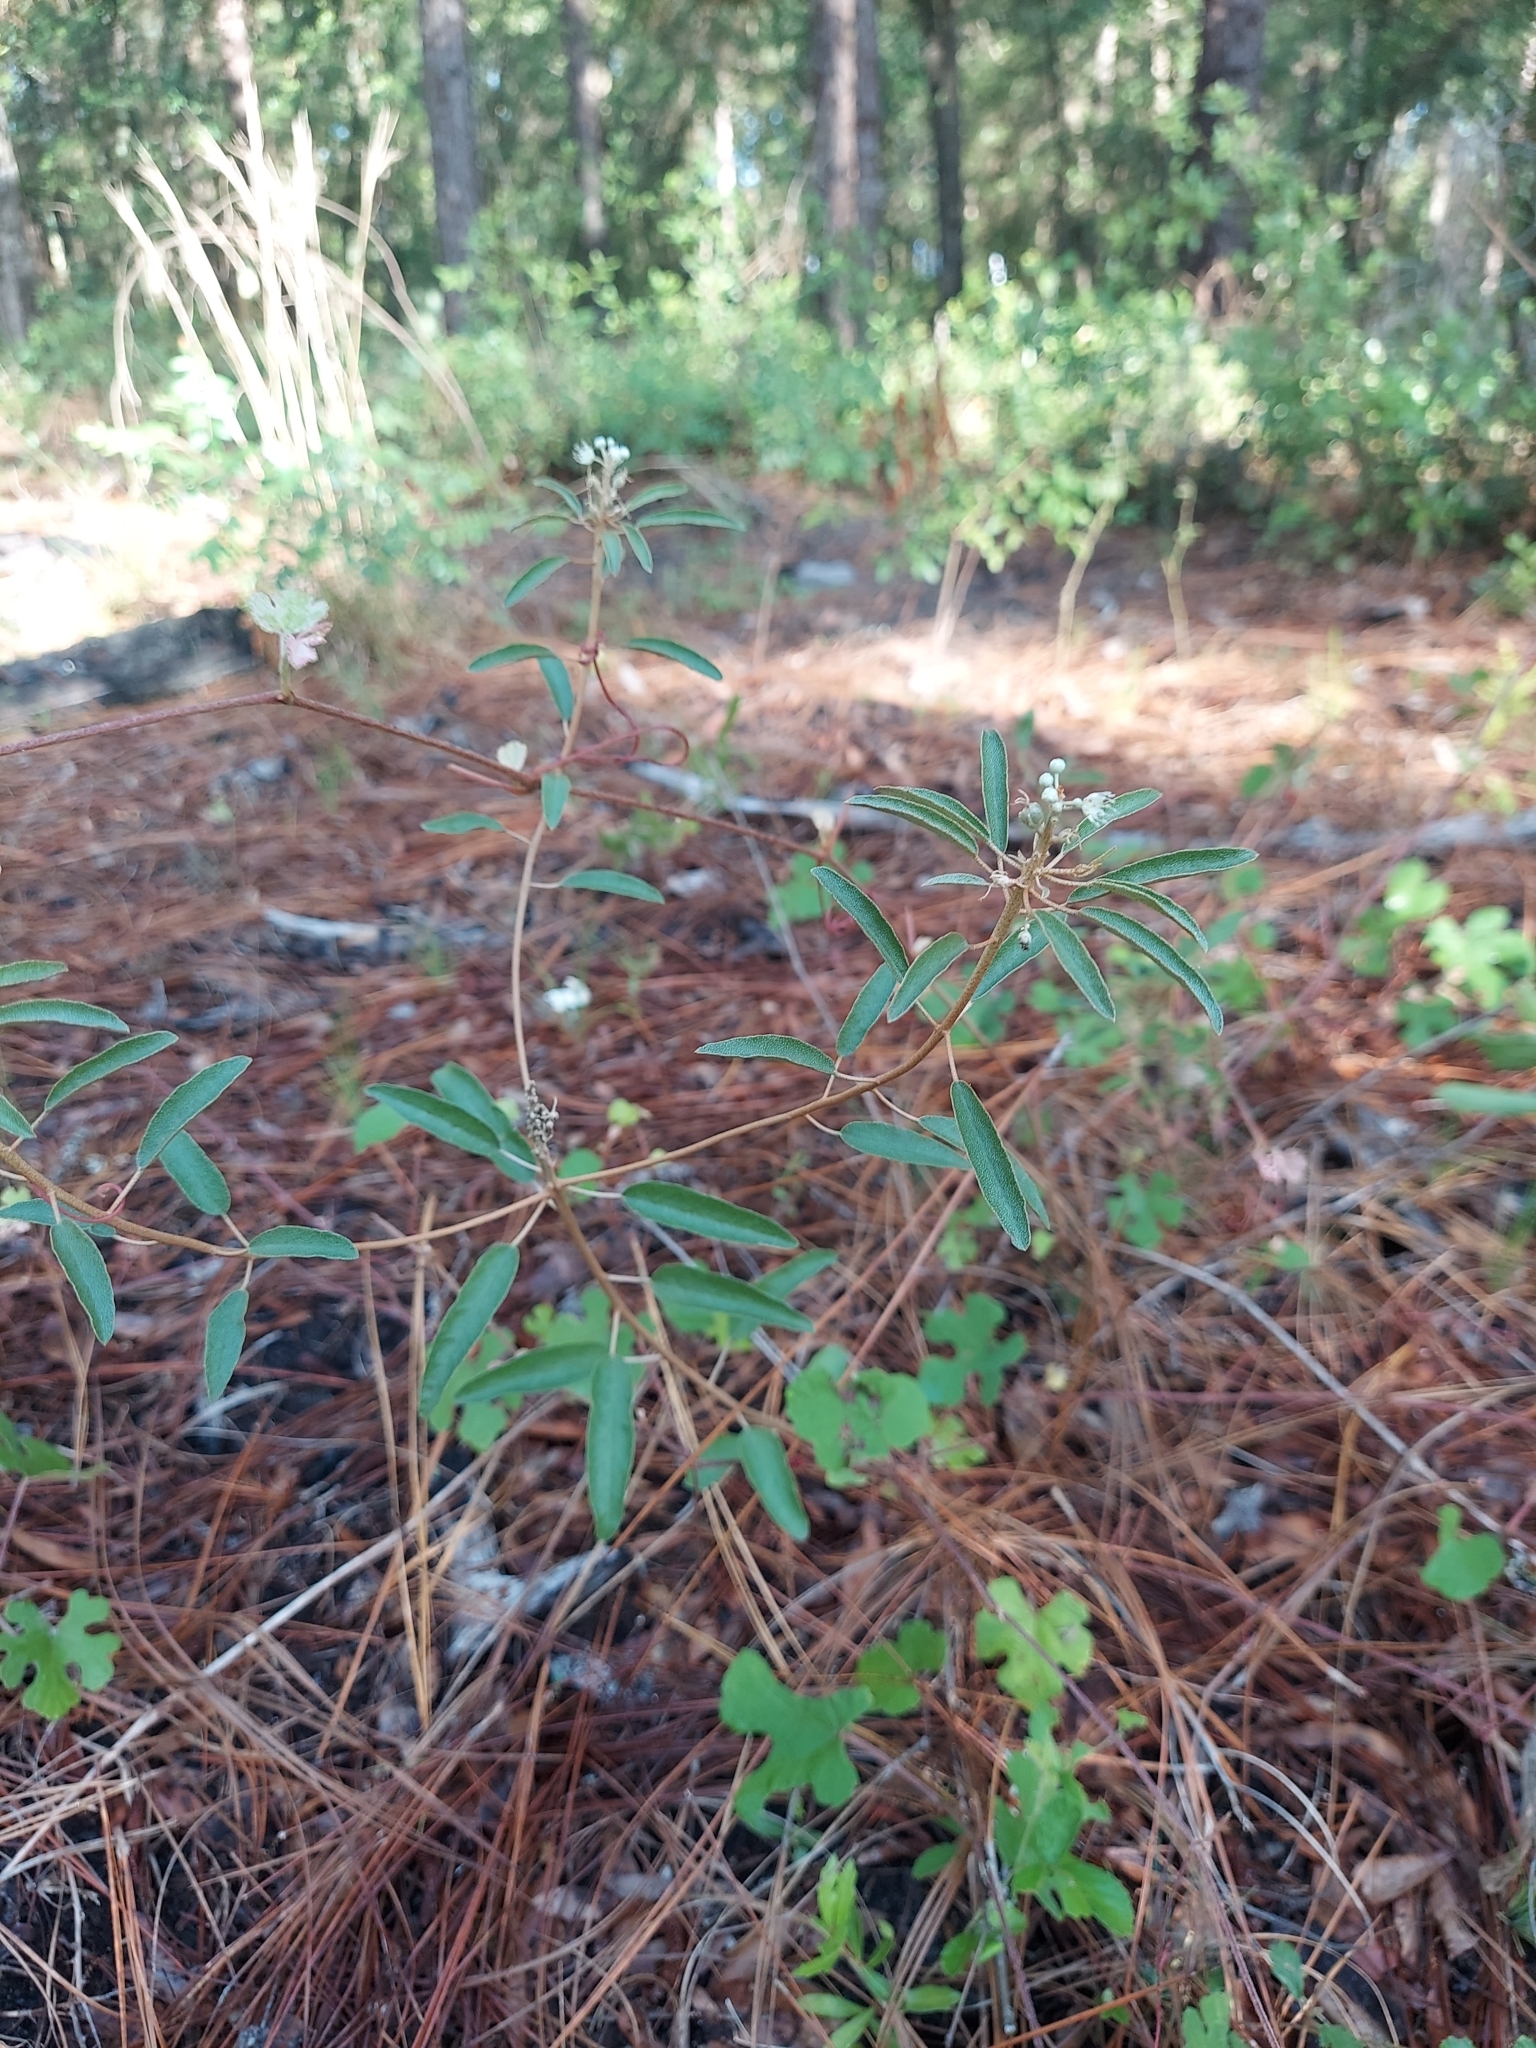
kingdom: Plantae
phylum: Tracheophyta
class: Magnoliopsida
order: Malpighiales
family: Euphorbiaceae
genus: Croton
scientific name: Croton argyranthemus
